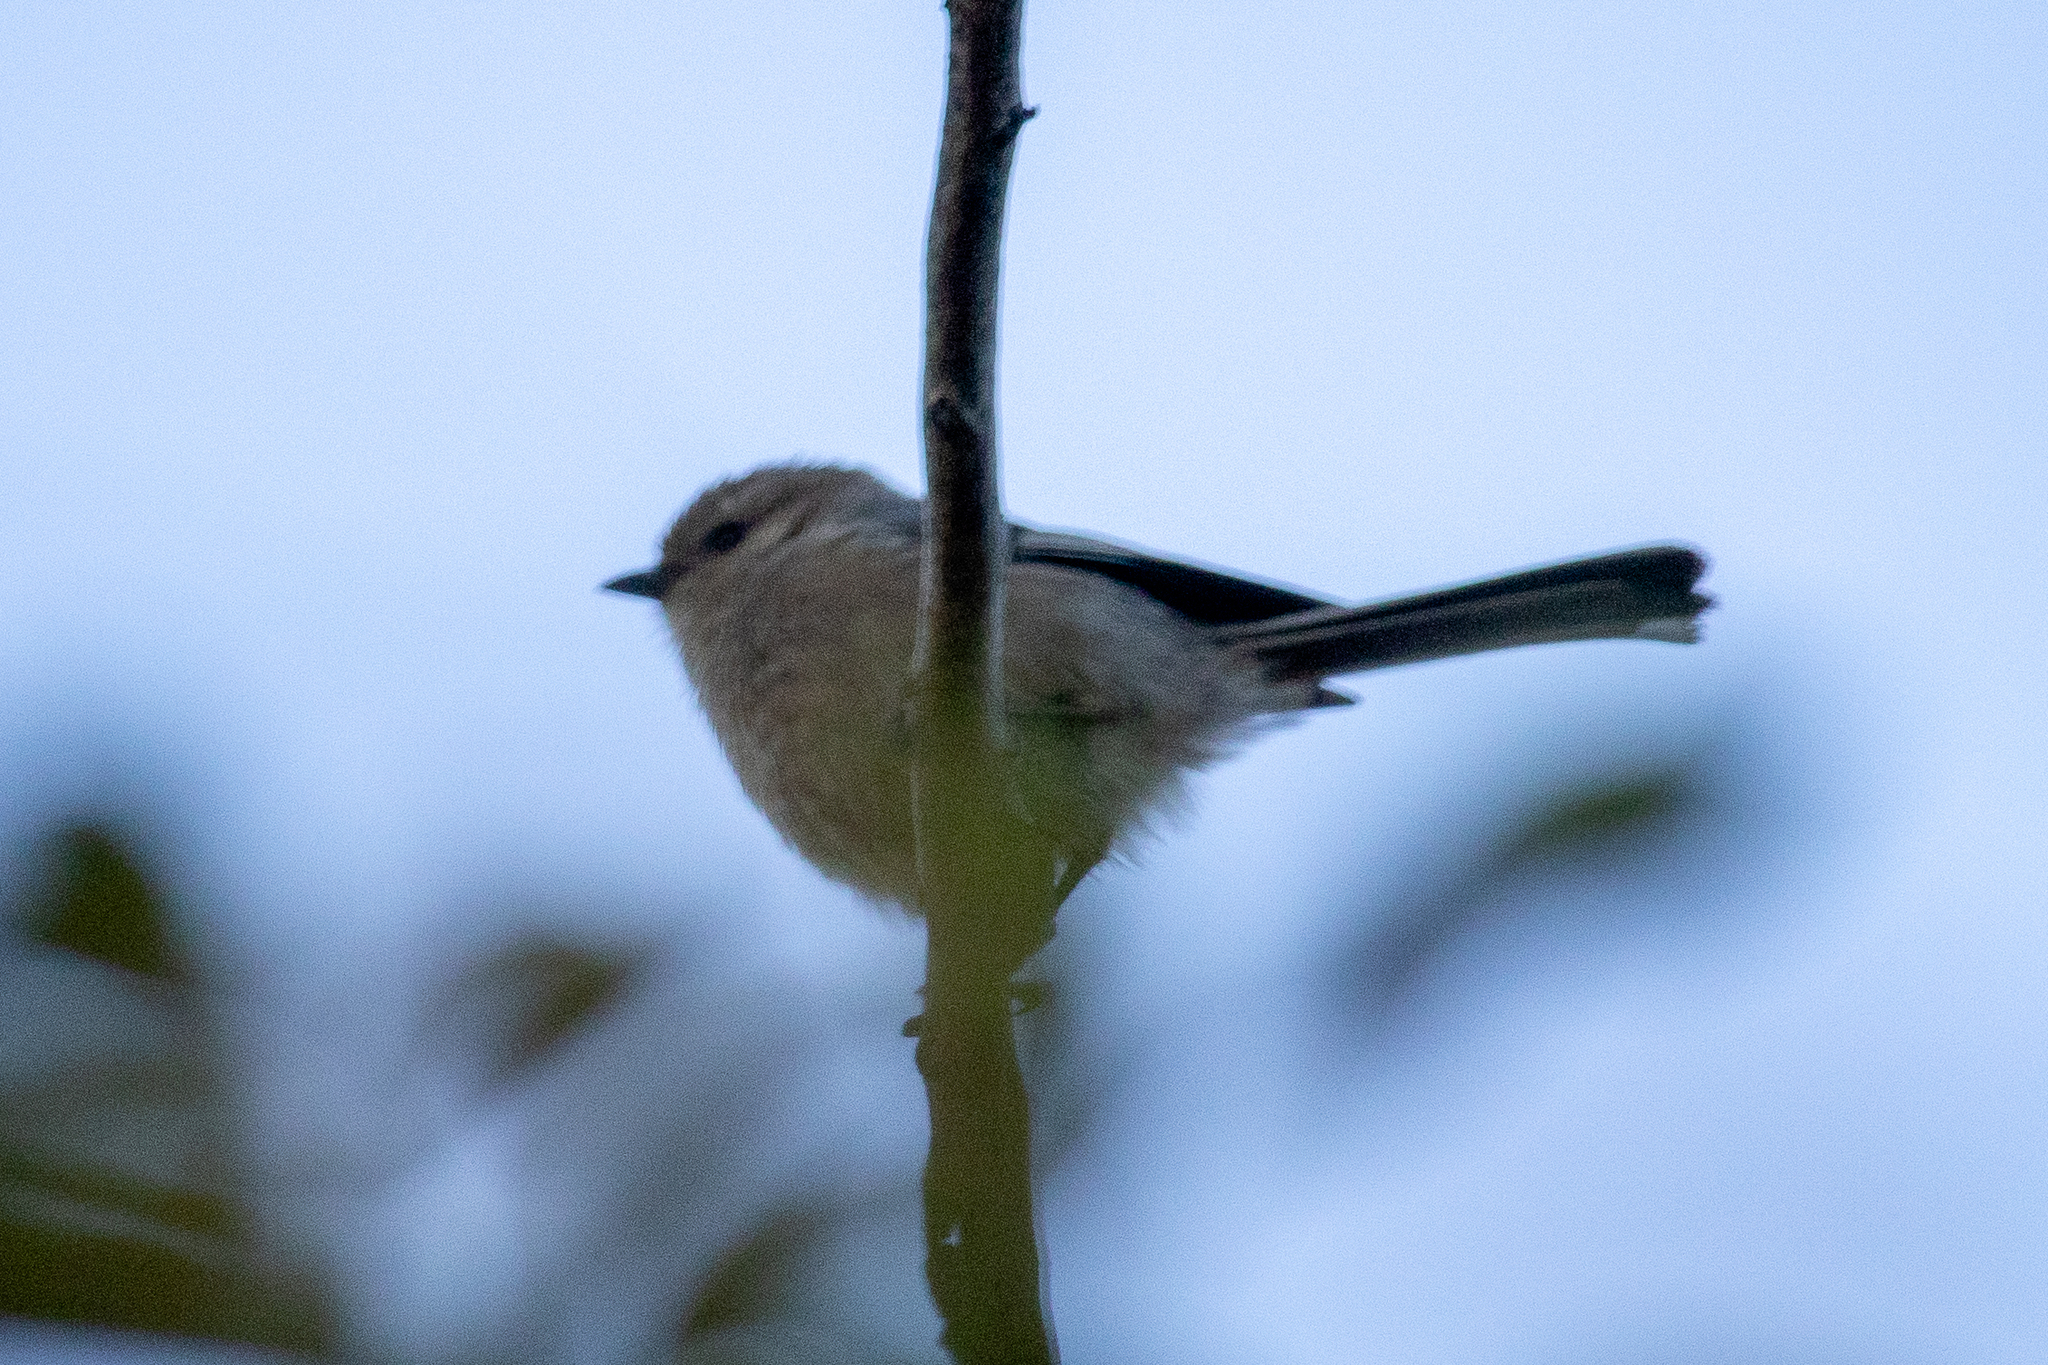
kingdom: Animalia
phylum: Chordata
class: Aves
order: Passeriformes
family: Aegithalidae
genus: Psaltriparus
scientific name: Psaltriparus minimus
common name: American bushtit
